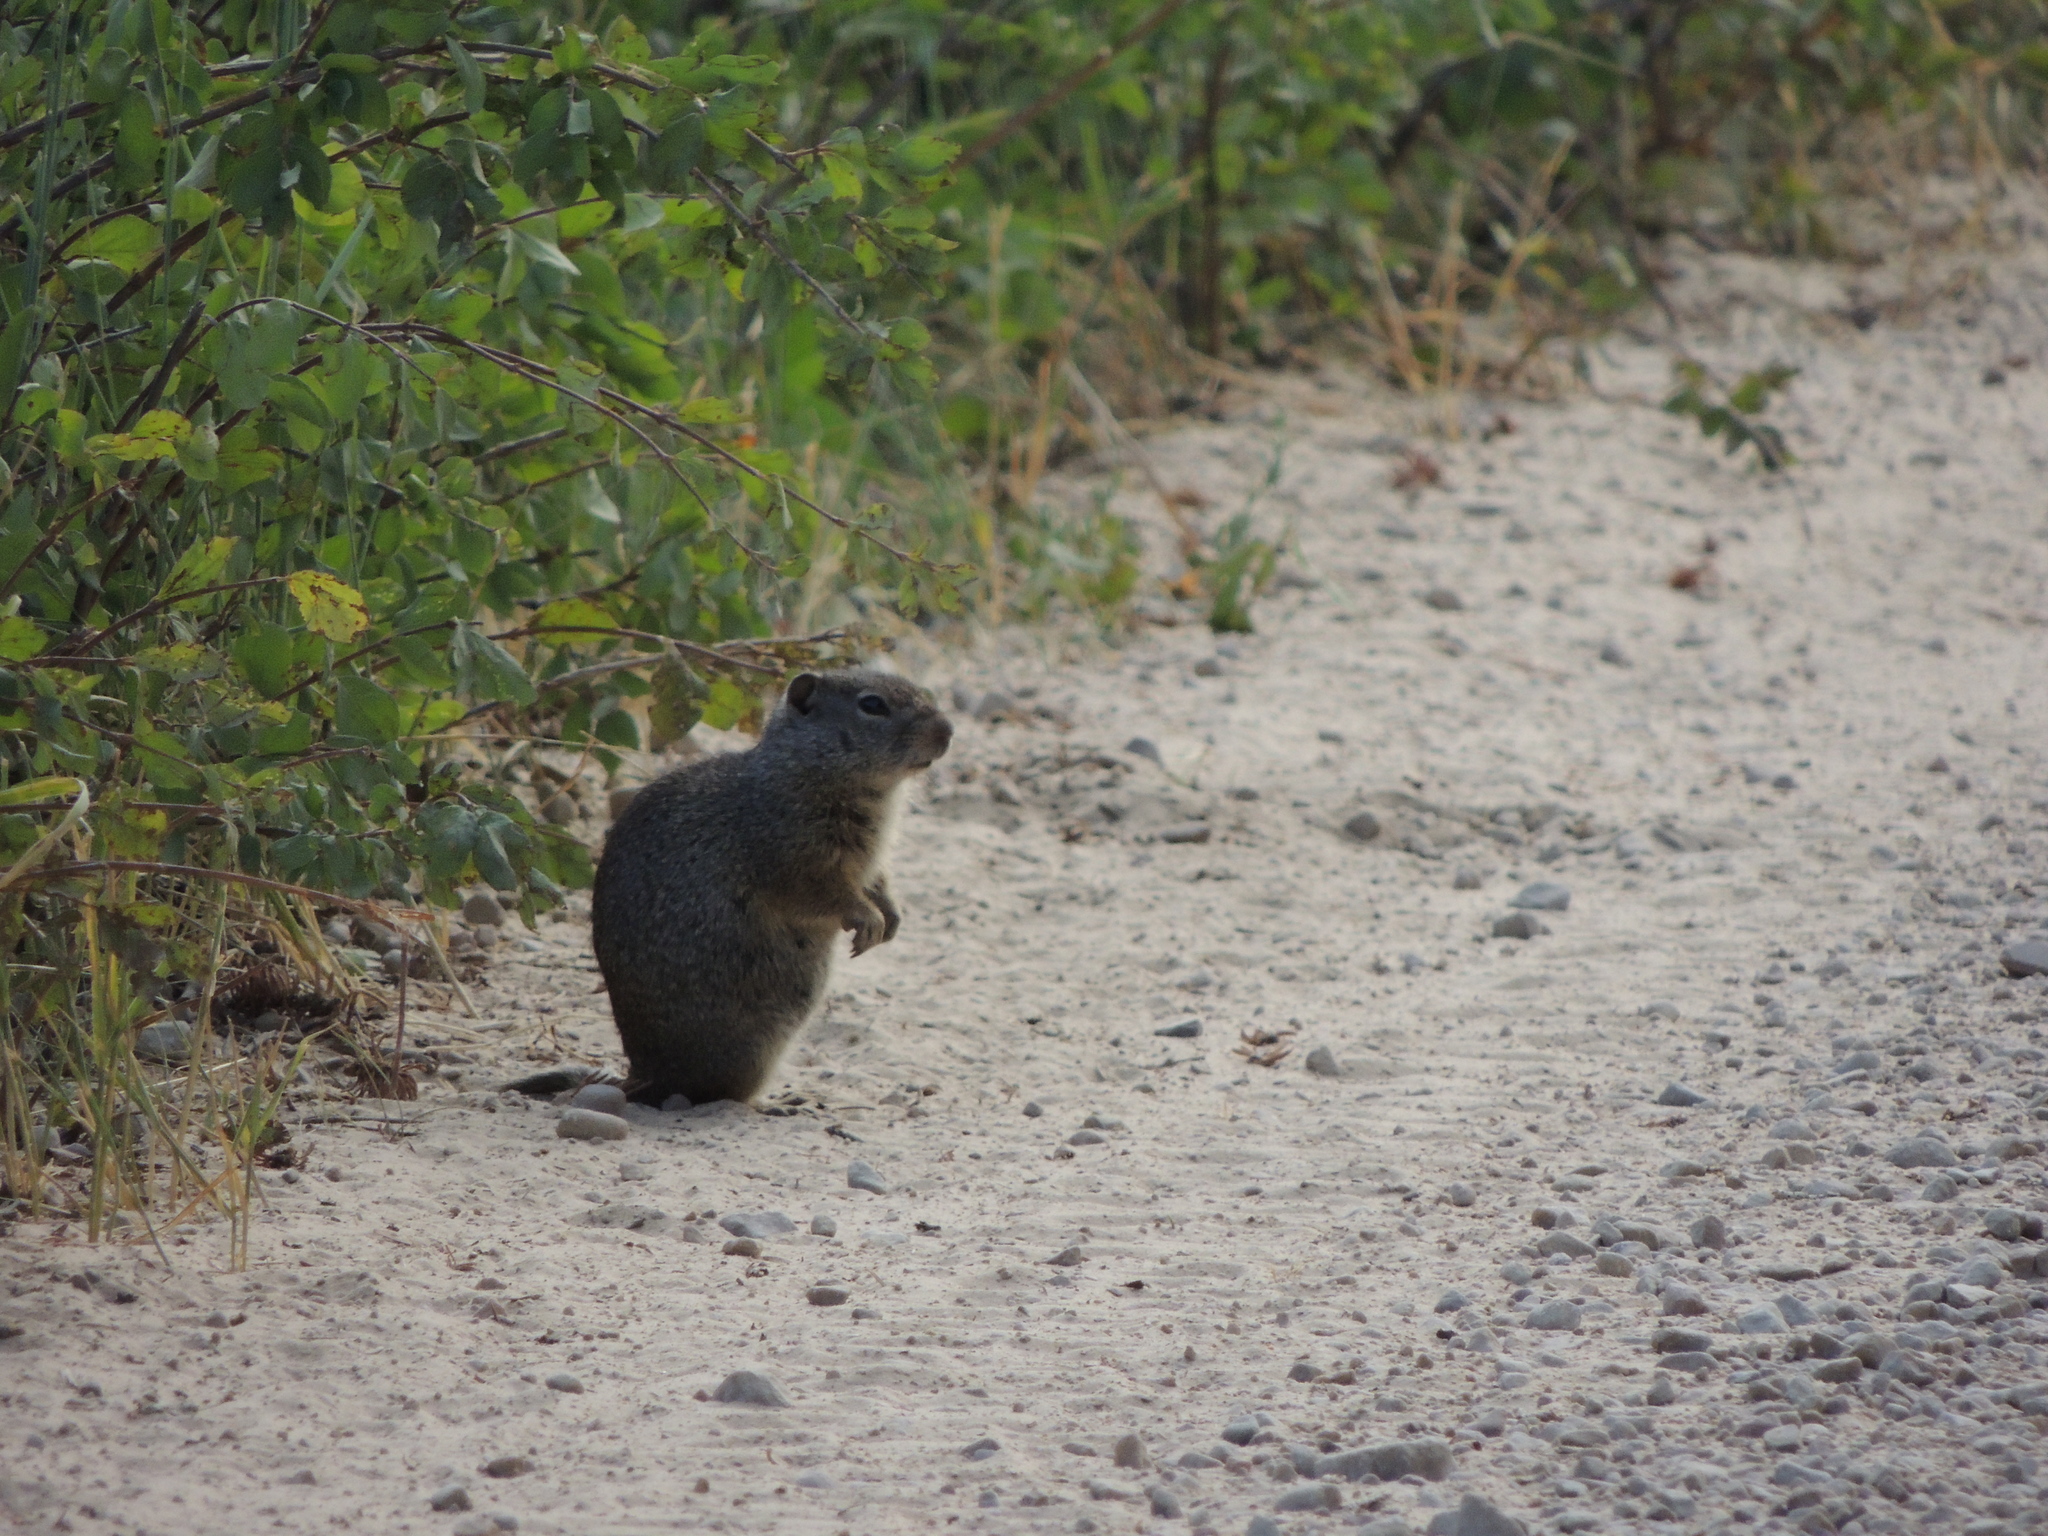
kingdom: Animalia
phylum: Chordata
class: Mammalia
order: Rodentia
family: Sciuridae
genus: Urocitellus
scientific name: Urocitellus armatus
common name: Uinta ground squirrel
